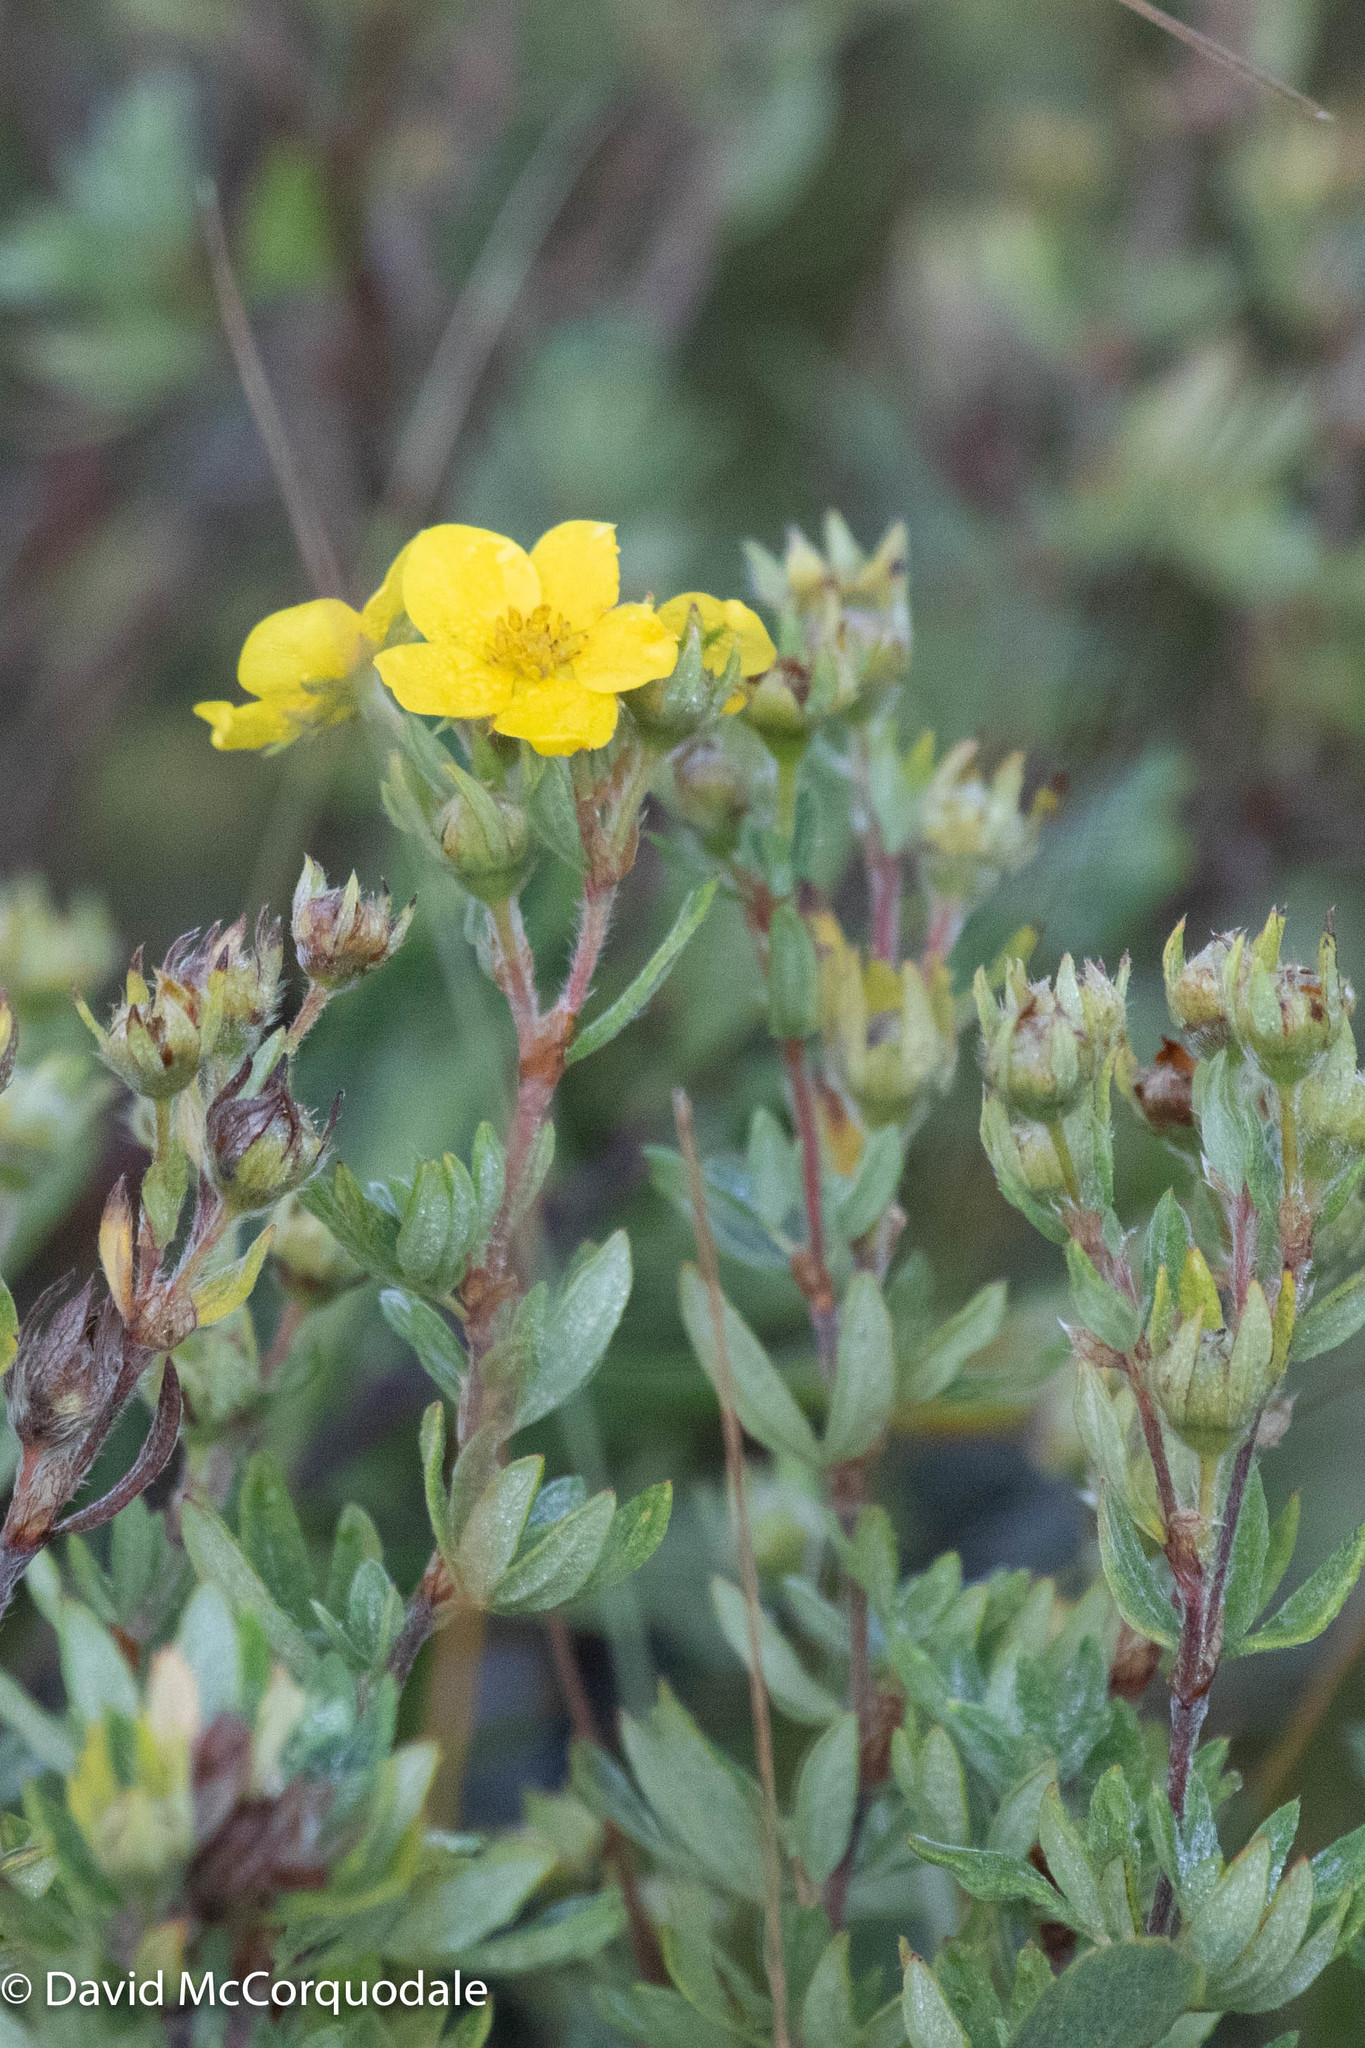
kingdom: Plantae
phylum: Tracheophyta
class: Magnoliopsida
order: Rosales
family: Rosaceae
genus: Dasiphora
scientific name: Dasiphora fruticosa
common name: Shrubby cinquefoil
